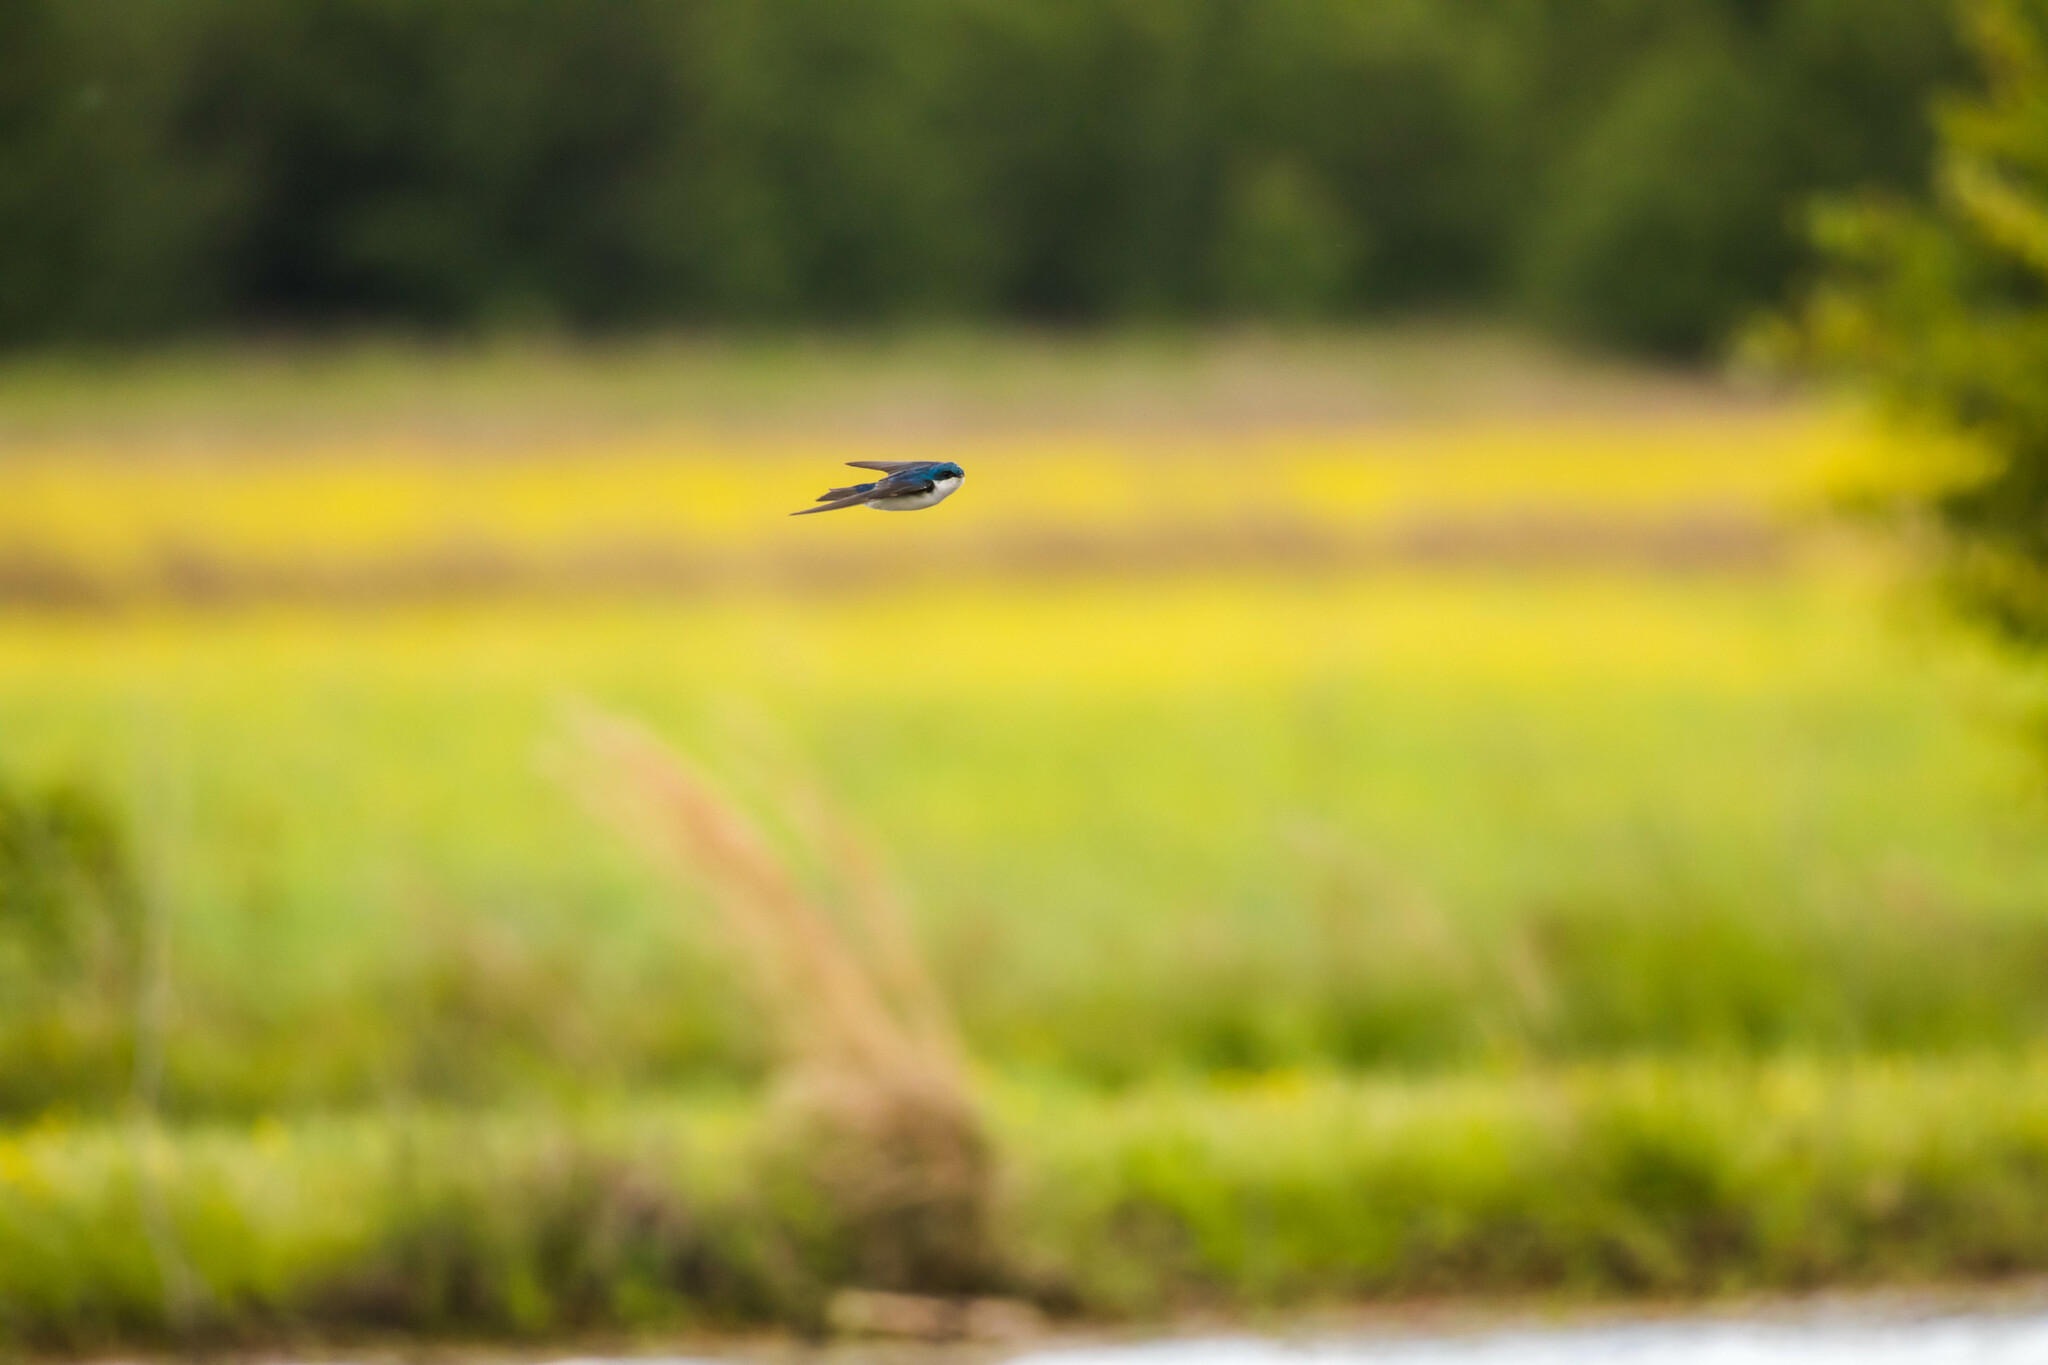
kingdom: Animalia
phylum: Chordata
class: Aves
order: Passeriformes
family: Hirundinidae
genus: Tachycineta
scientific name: Tachycineta bicolor
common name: Tree swallow
